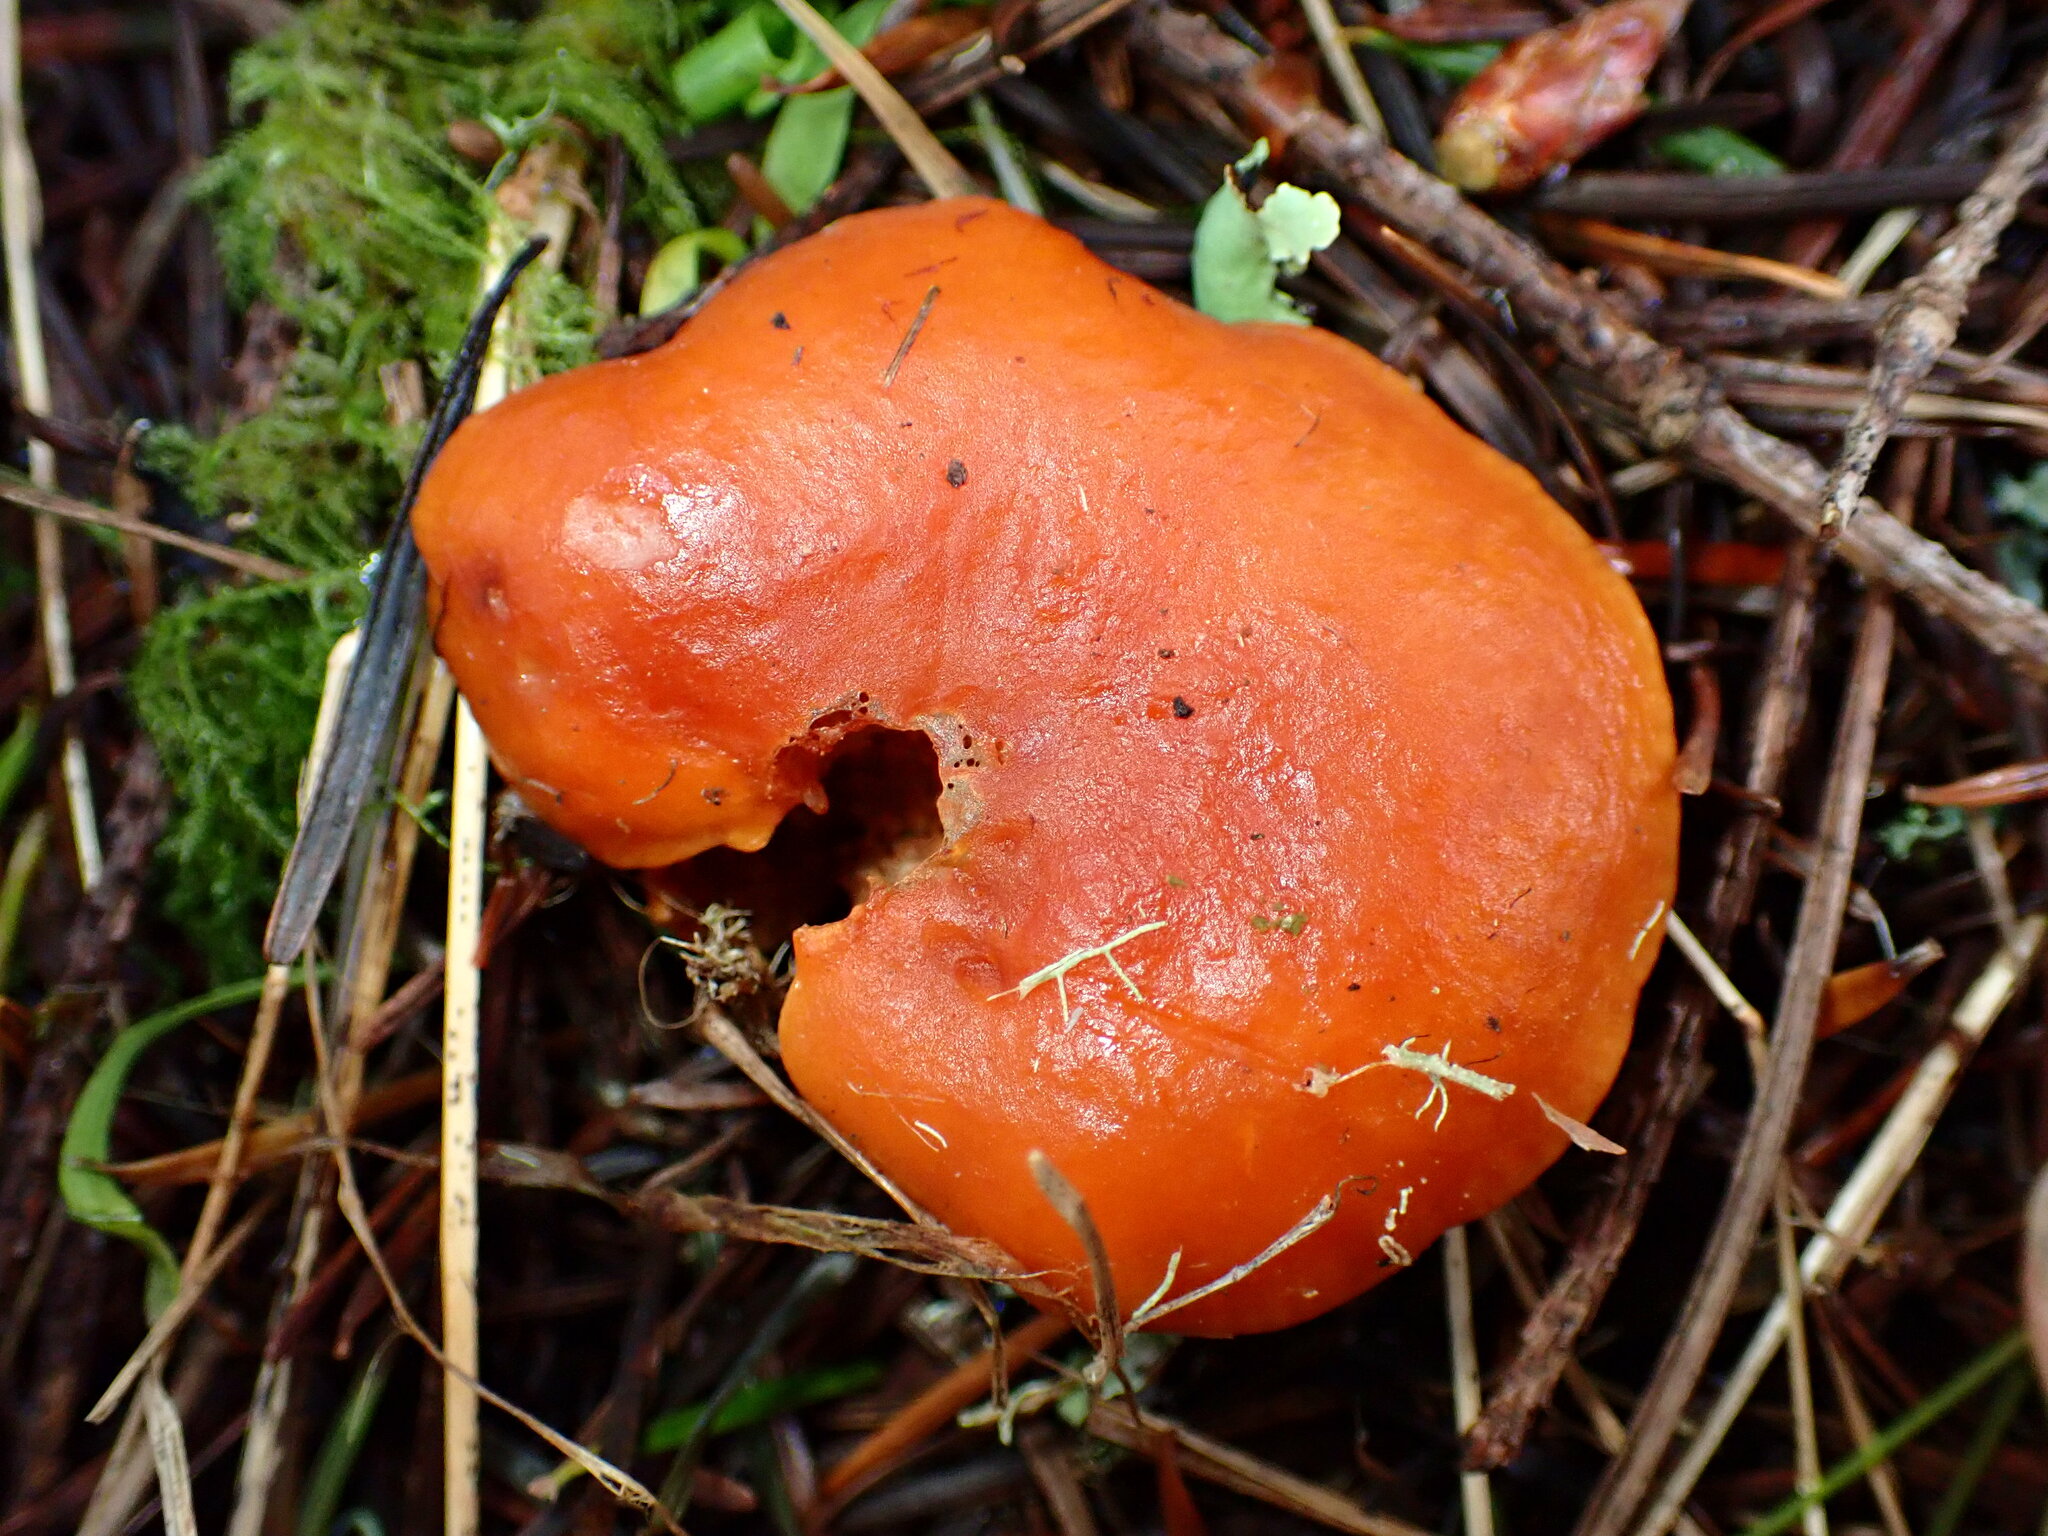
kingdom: Fungi
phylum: Basidiomycota
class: Agaricomycetes
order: Russulales
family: Russulaceae
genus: Lactarius
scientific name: Lactarius rubidus
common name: Candy cap
